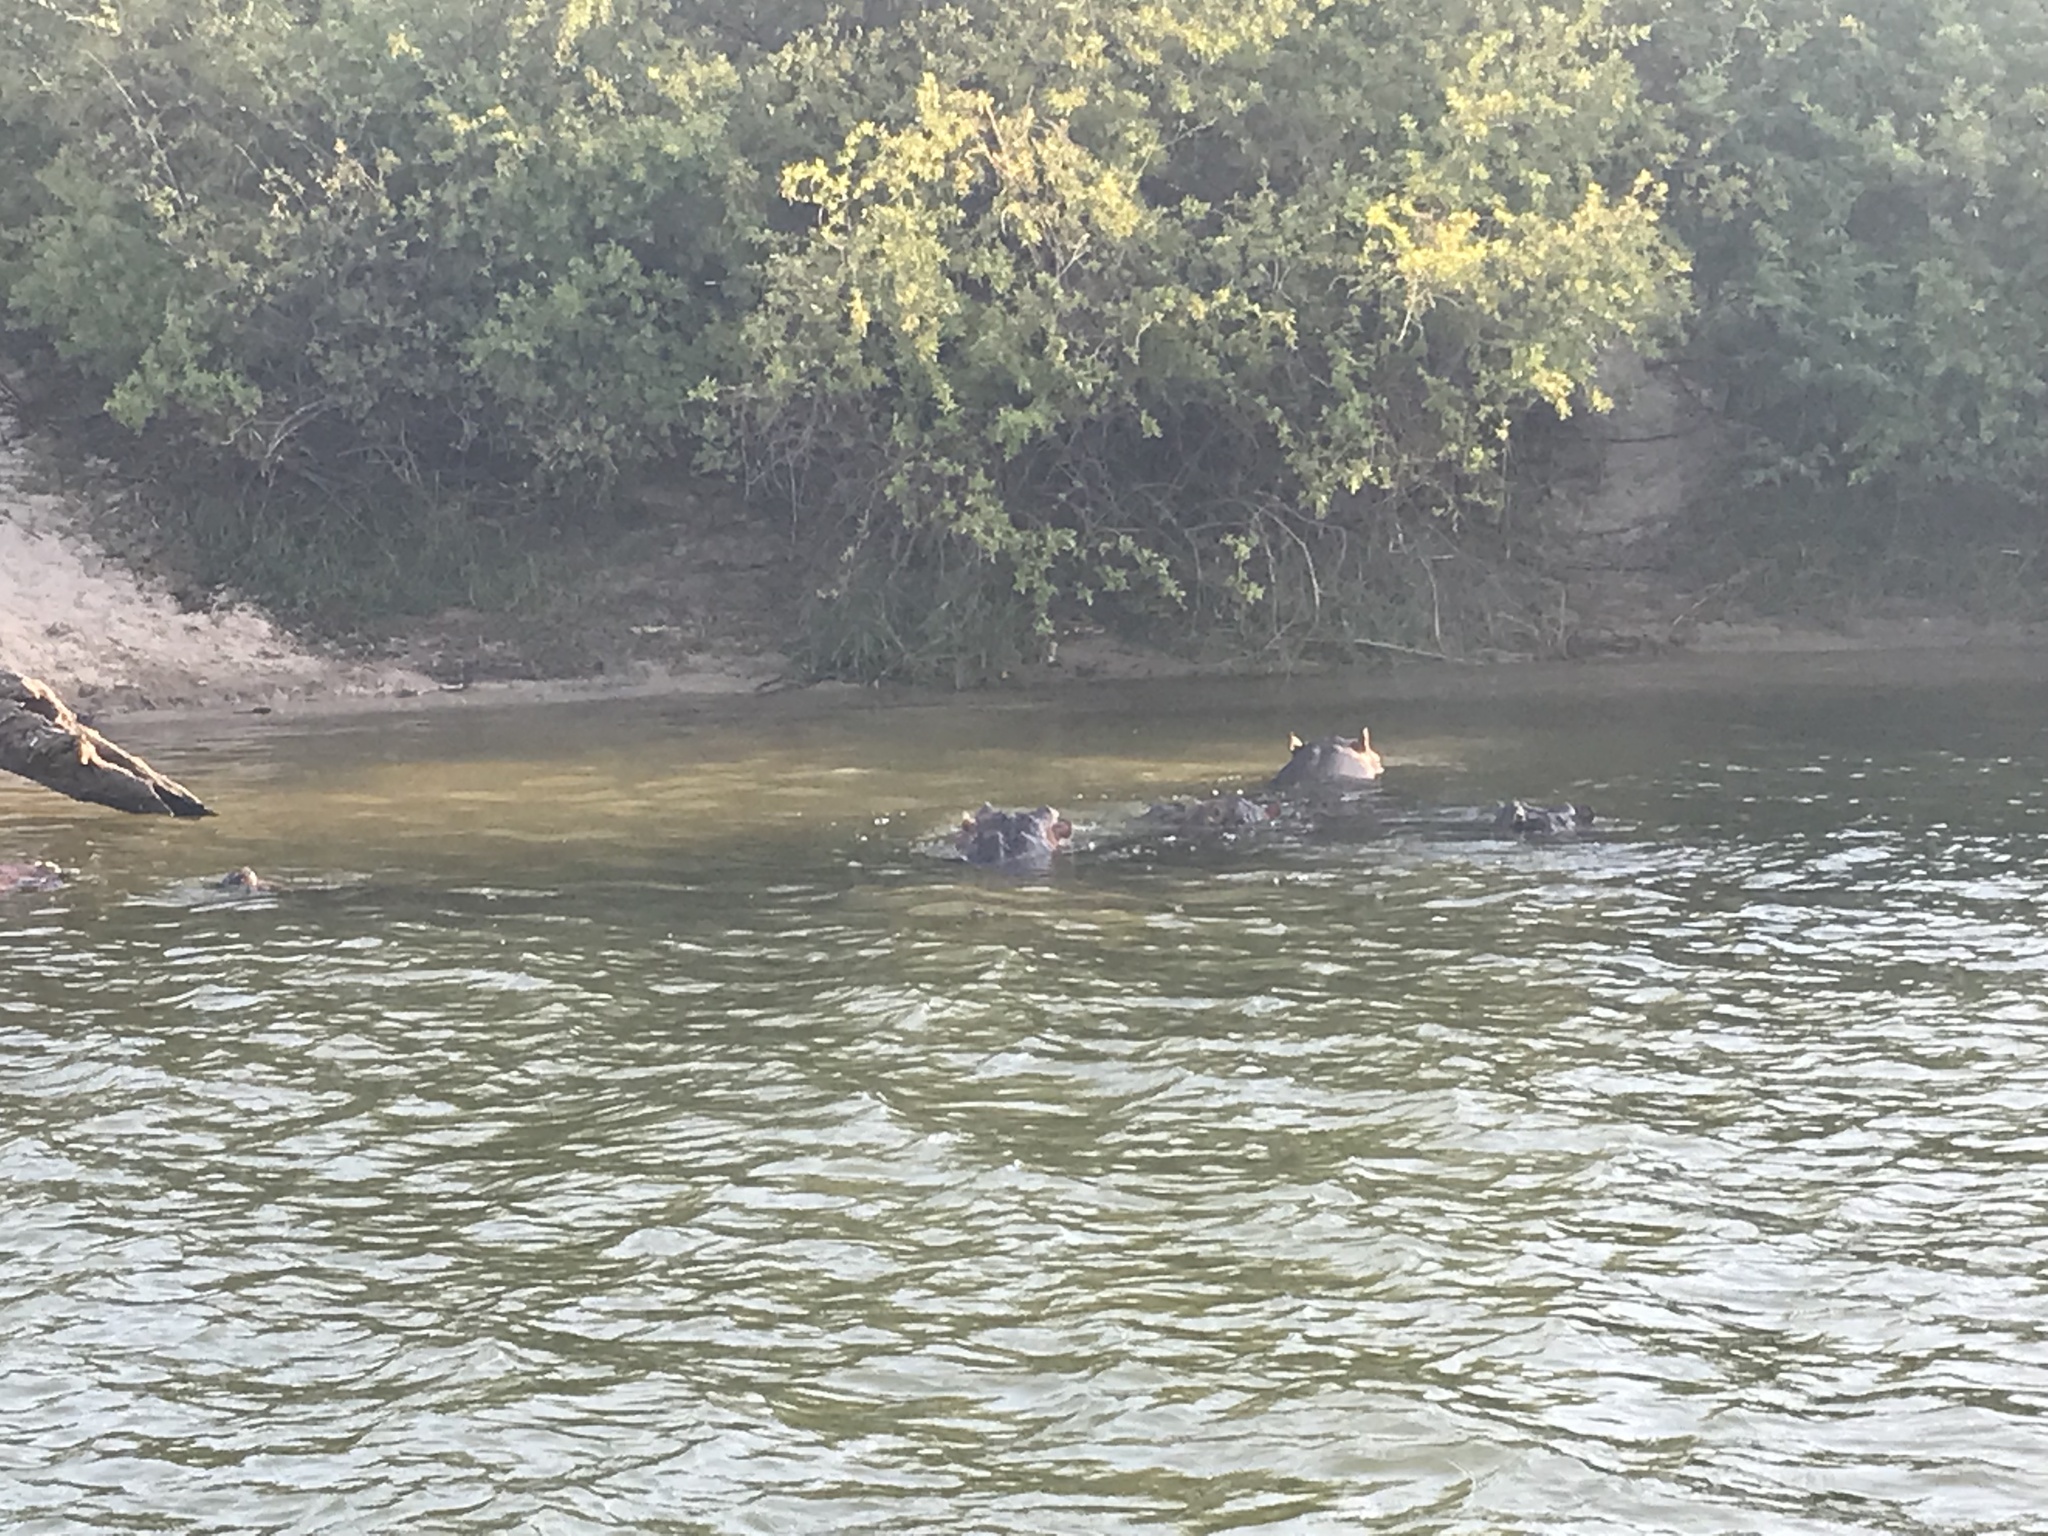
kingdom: Animalia
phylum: Chordata
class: Mammalia
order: Artiodactyla
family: Hippopotamidae
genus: Hippopotamus
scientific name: Hippopotamus amphibius
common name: Common hippopotamus
